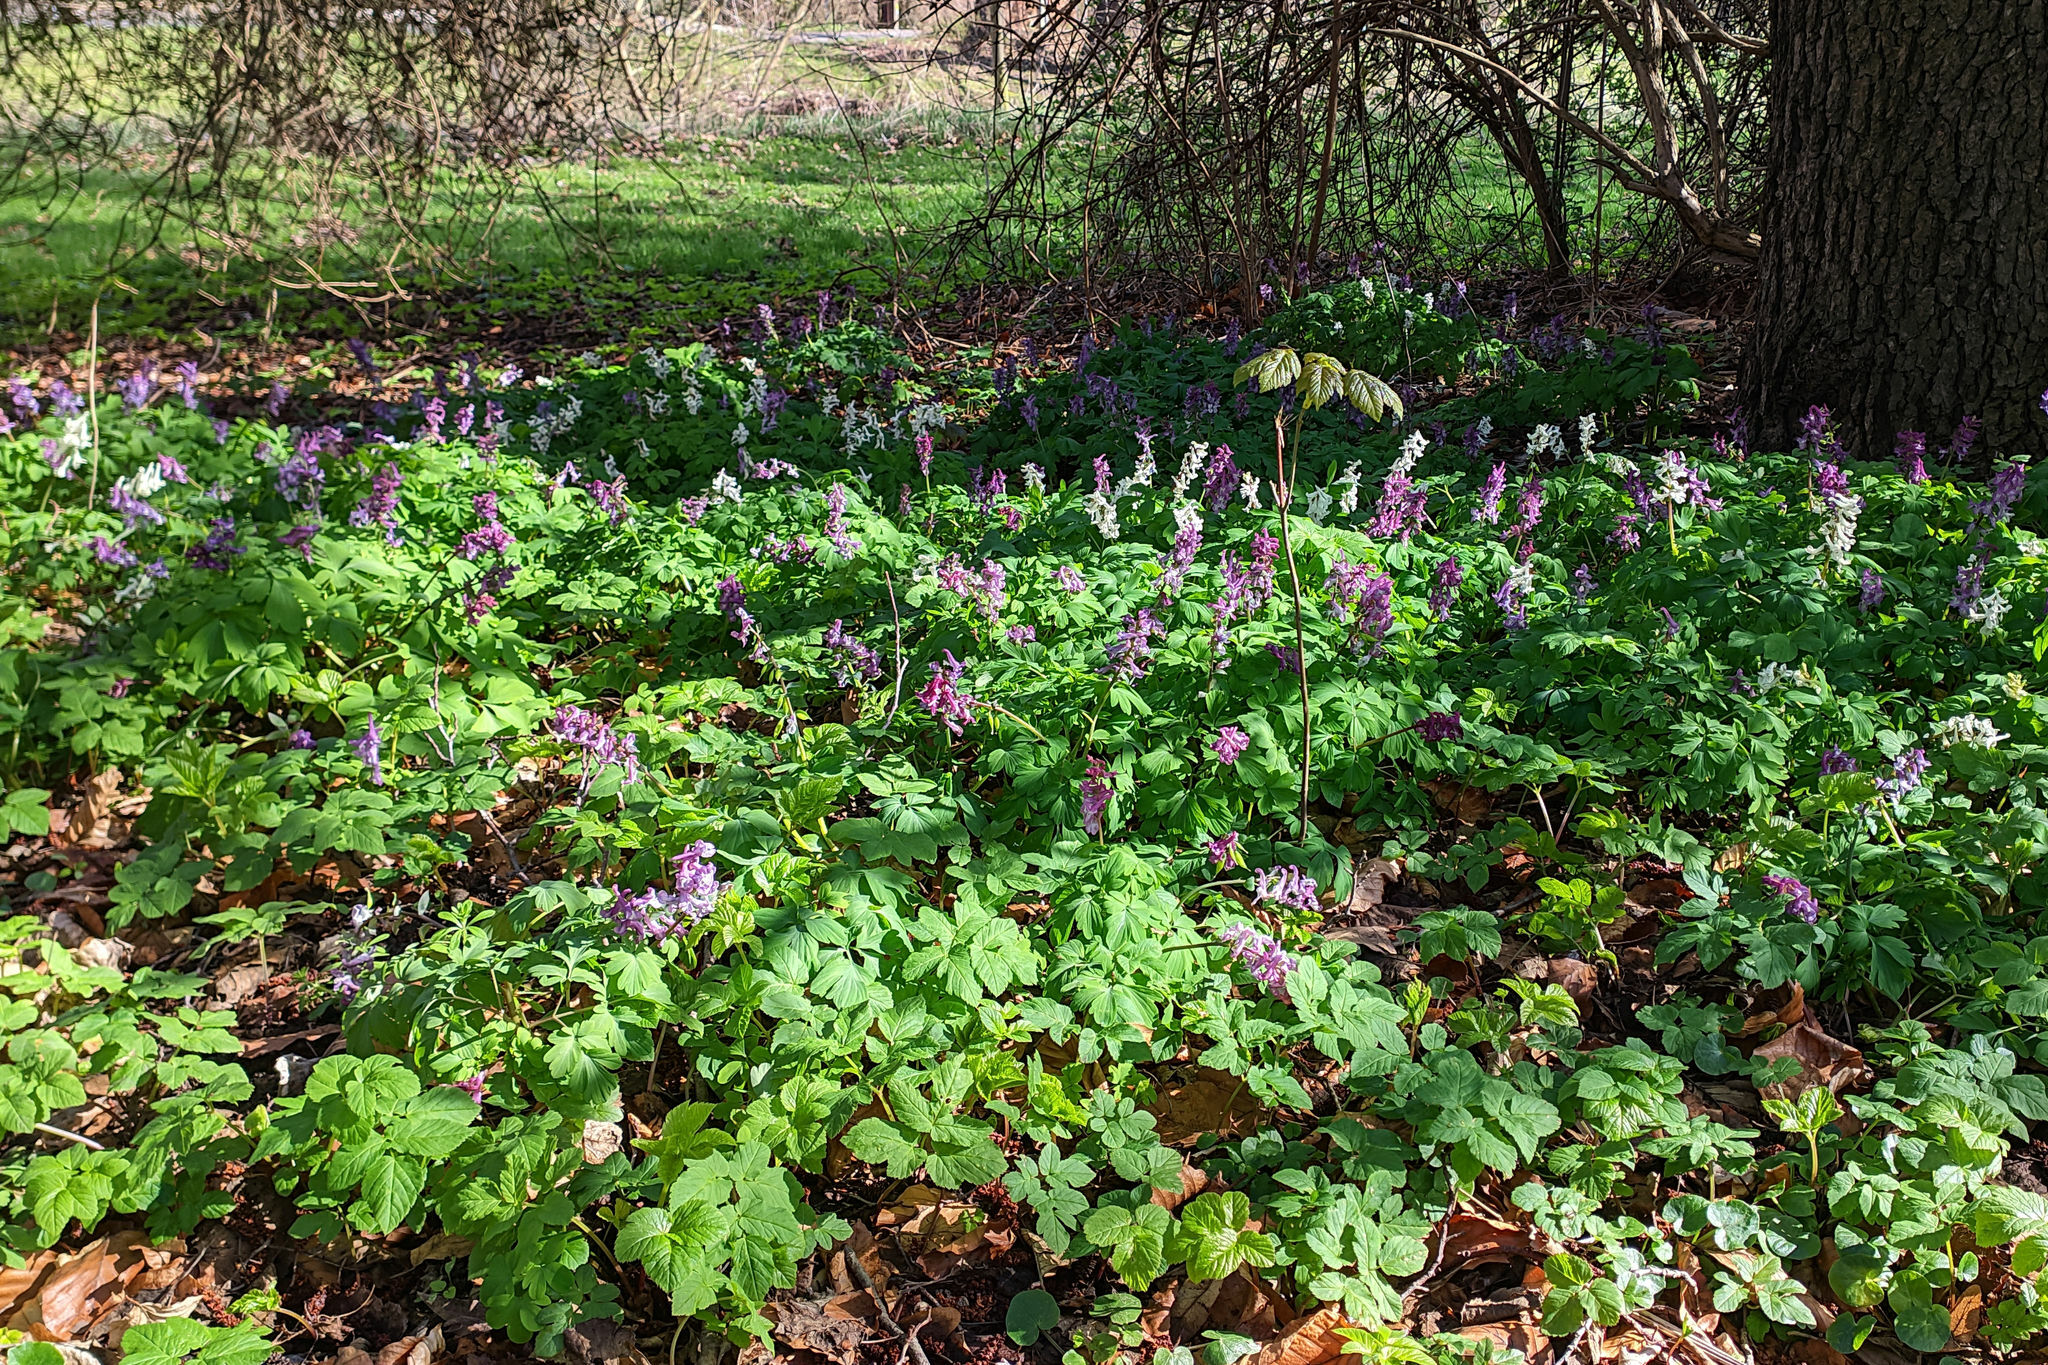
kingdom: Plantae
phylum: Tracheophyta
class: Magnoliopsida
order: Ranunculales
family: Papaveraceae
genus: Corydalis
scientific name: Corydalis cava
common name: Hollowroot
